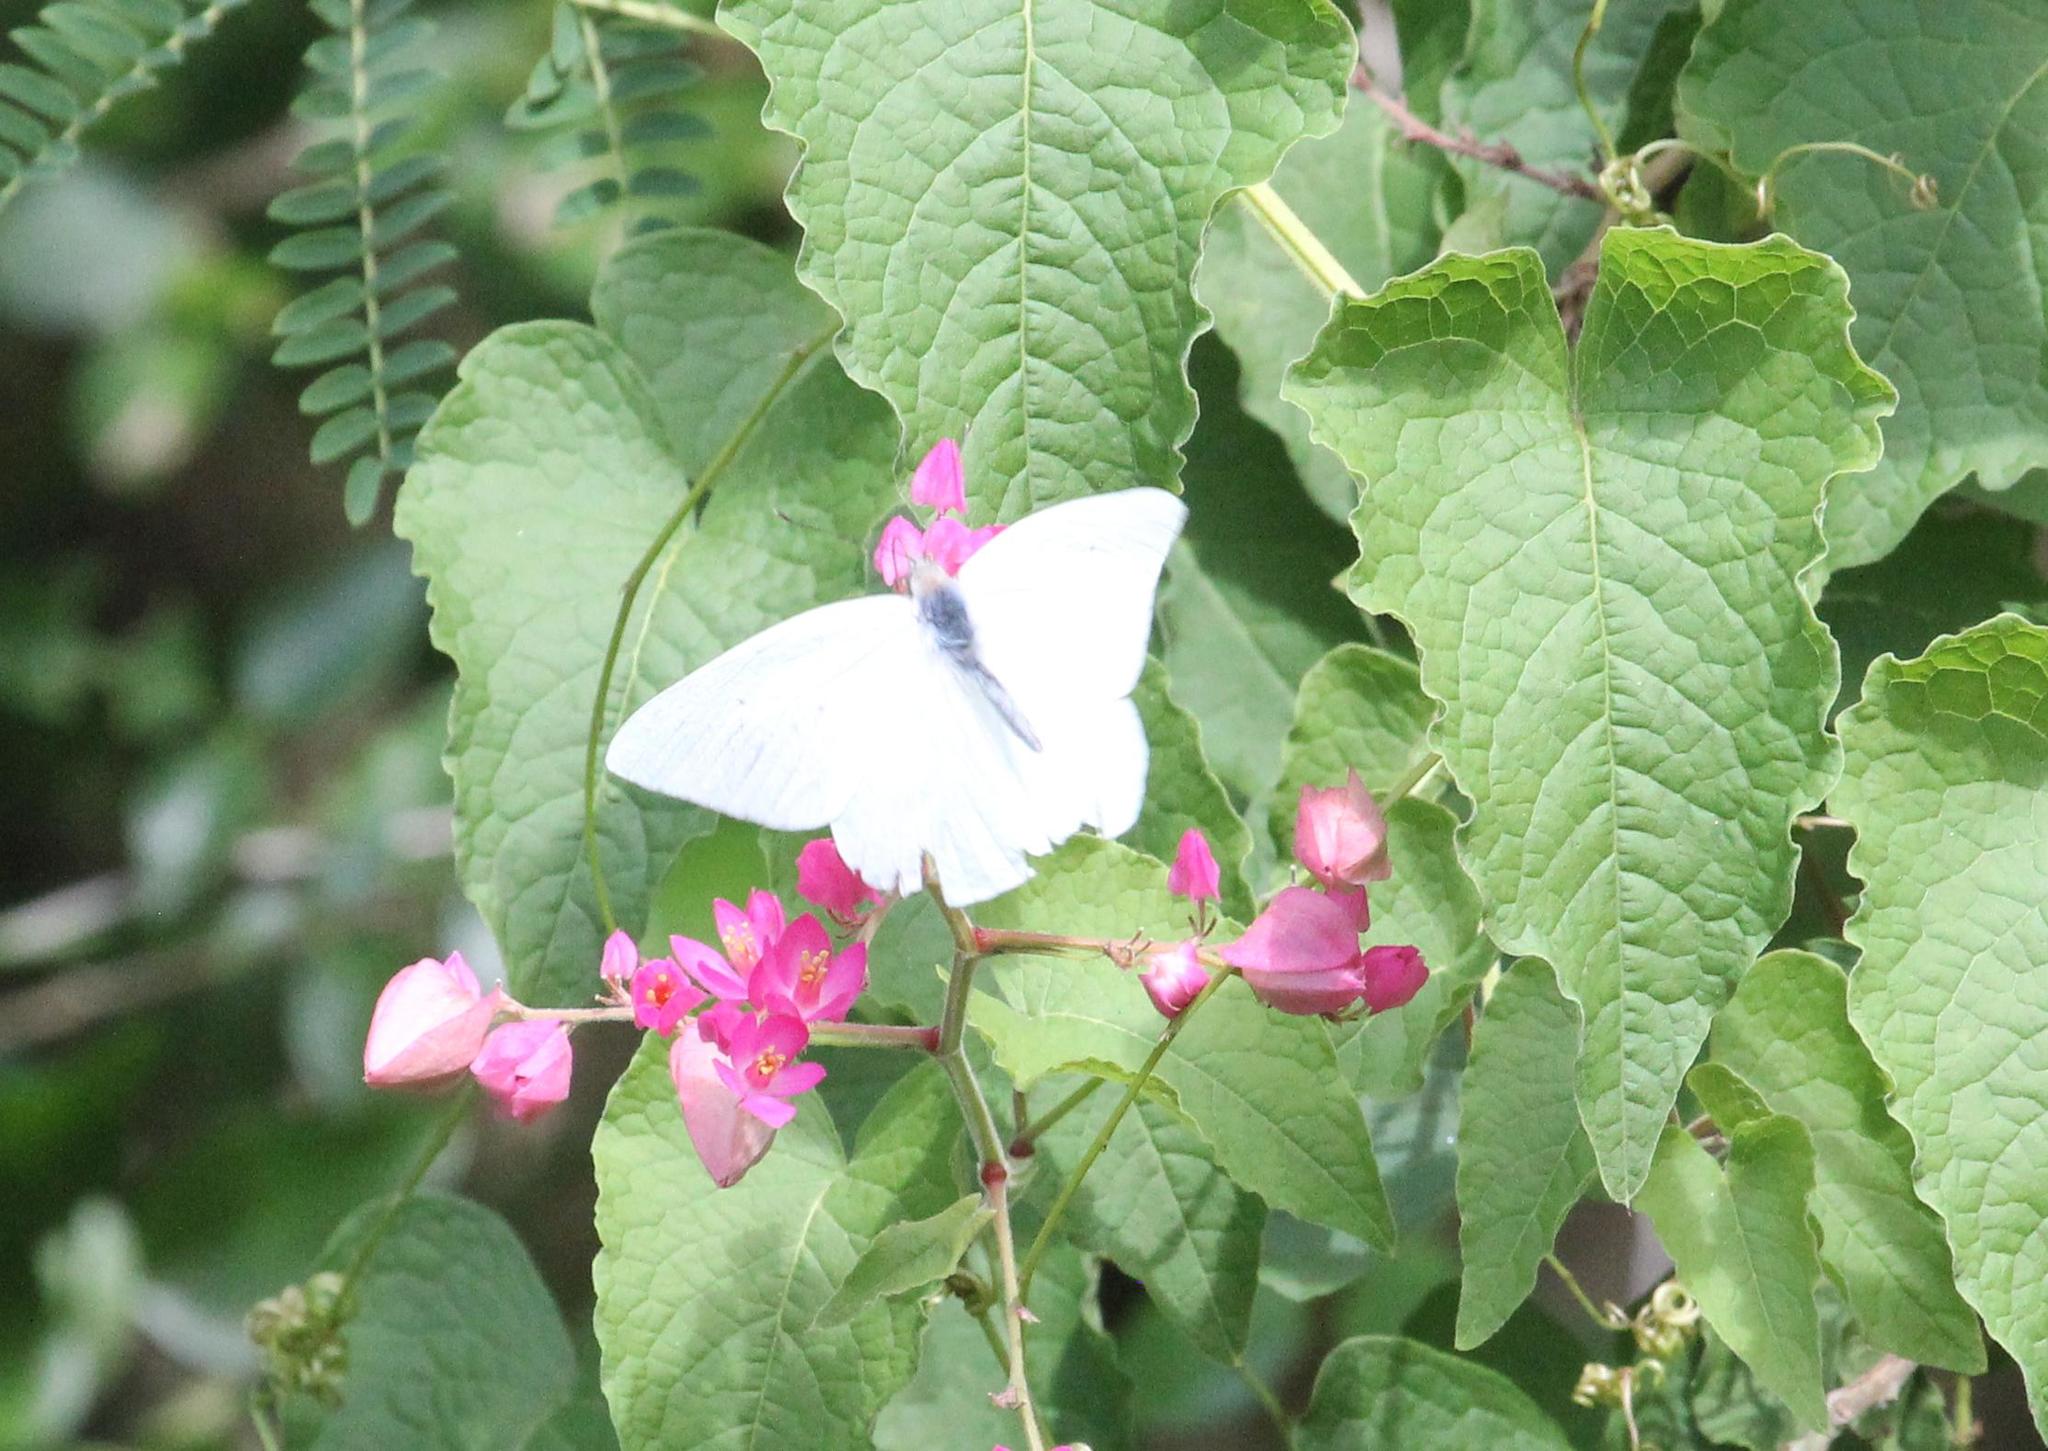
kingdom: Animalia
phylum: Arthropoda
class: Insecta
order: Lepidoptera
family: Pieridae
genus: Glutophrissa
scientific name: Glutophrissa drusilla
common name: Florida white
